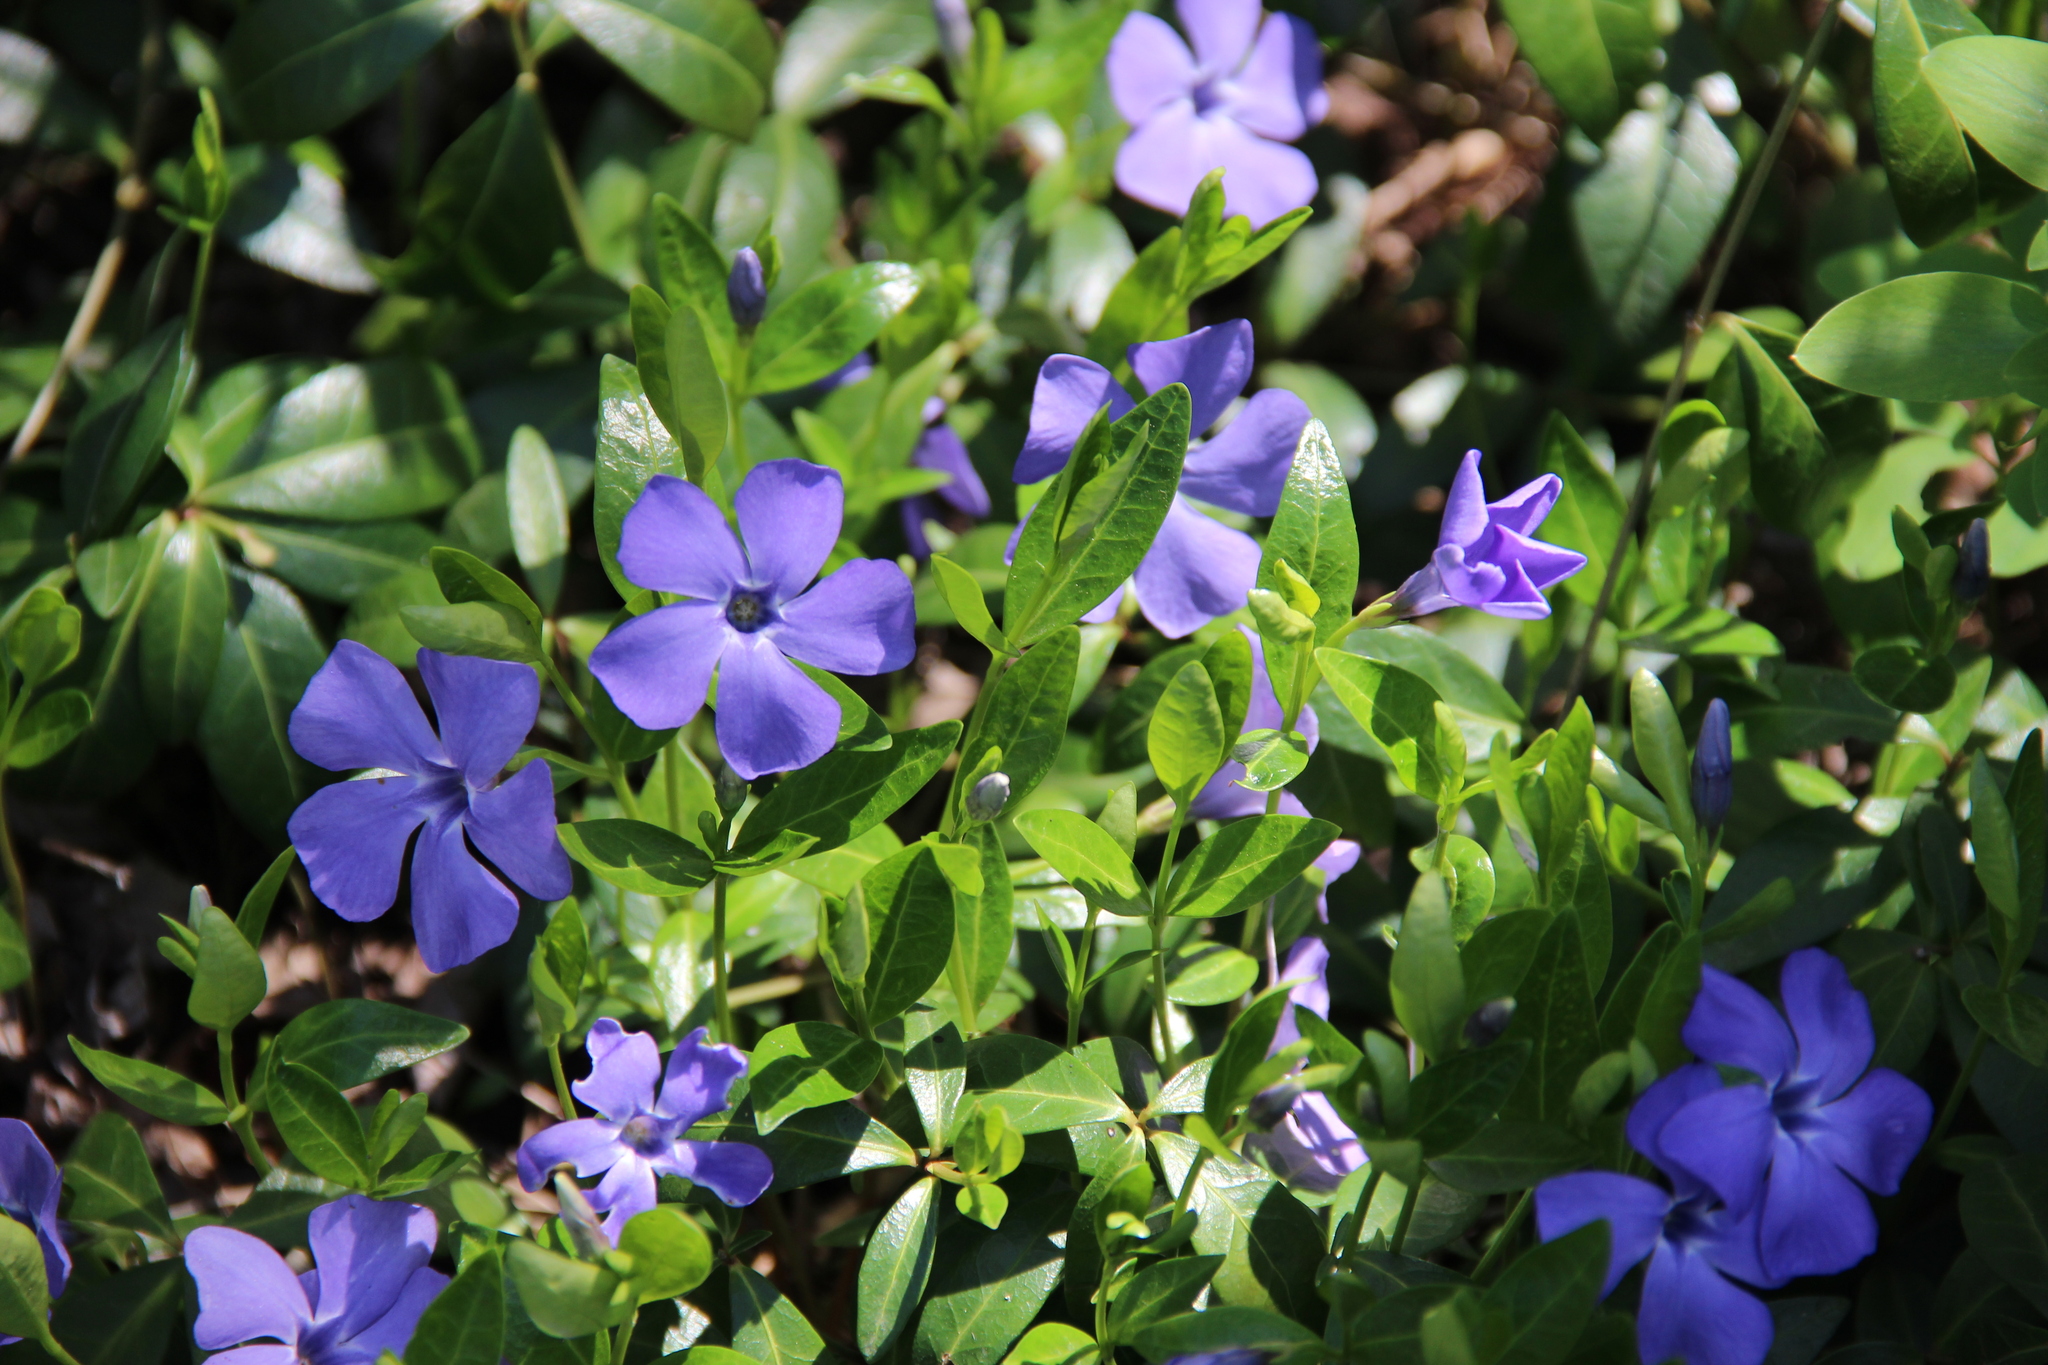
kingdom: Plantae
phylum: Tracheophyta
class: Magnoliopsida
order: Gentianales
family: Apocynaceae
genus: Vinca
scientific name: Vinca minor
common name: Lesser periwinkle
